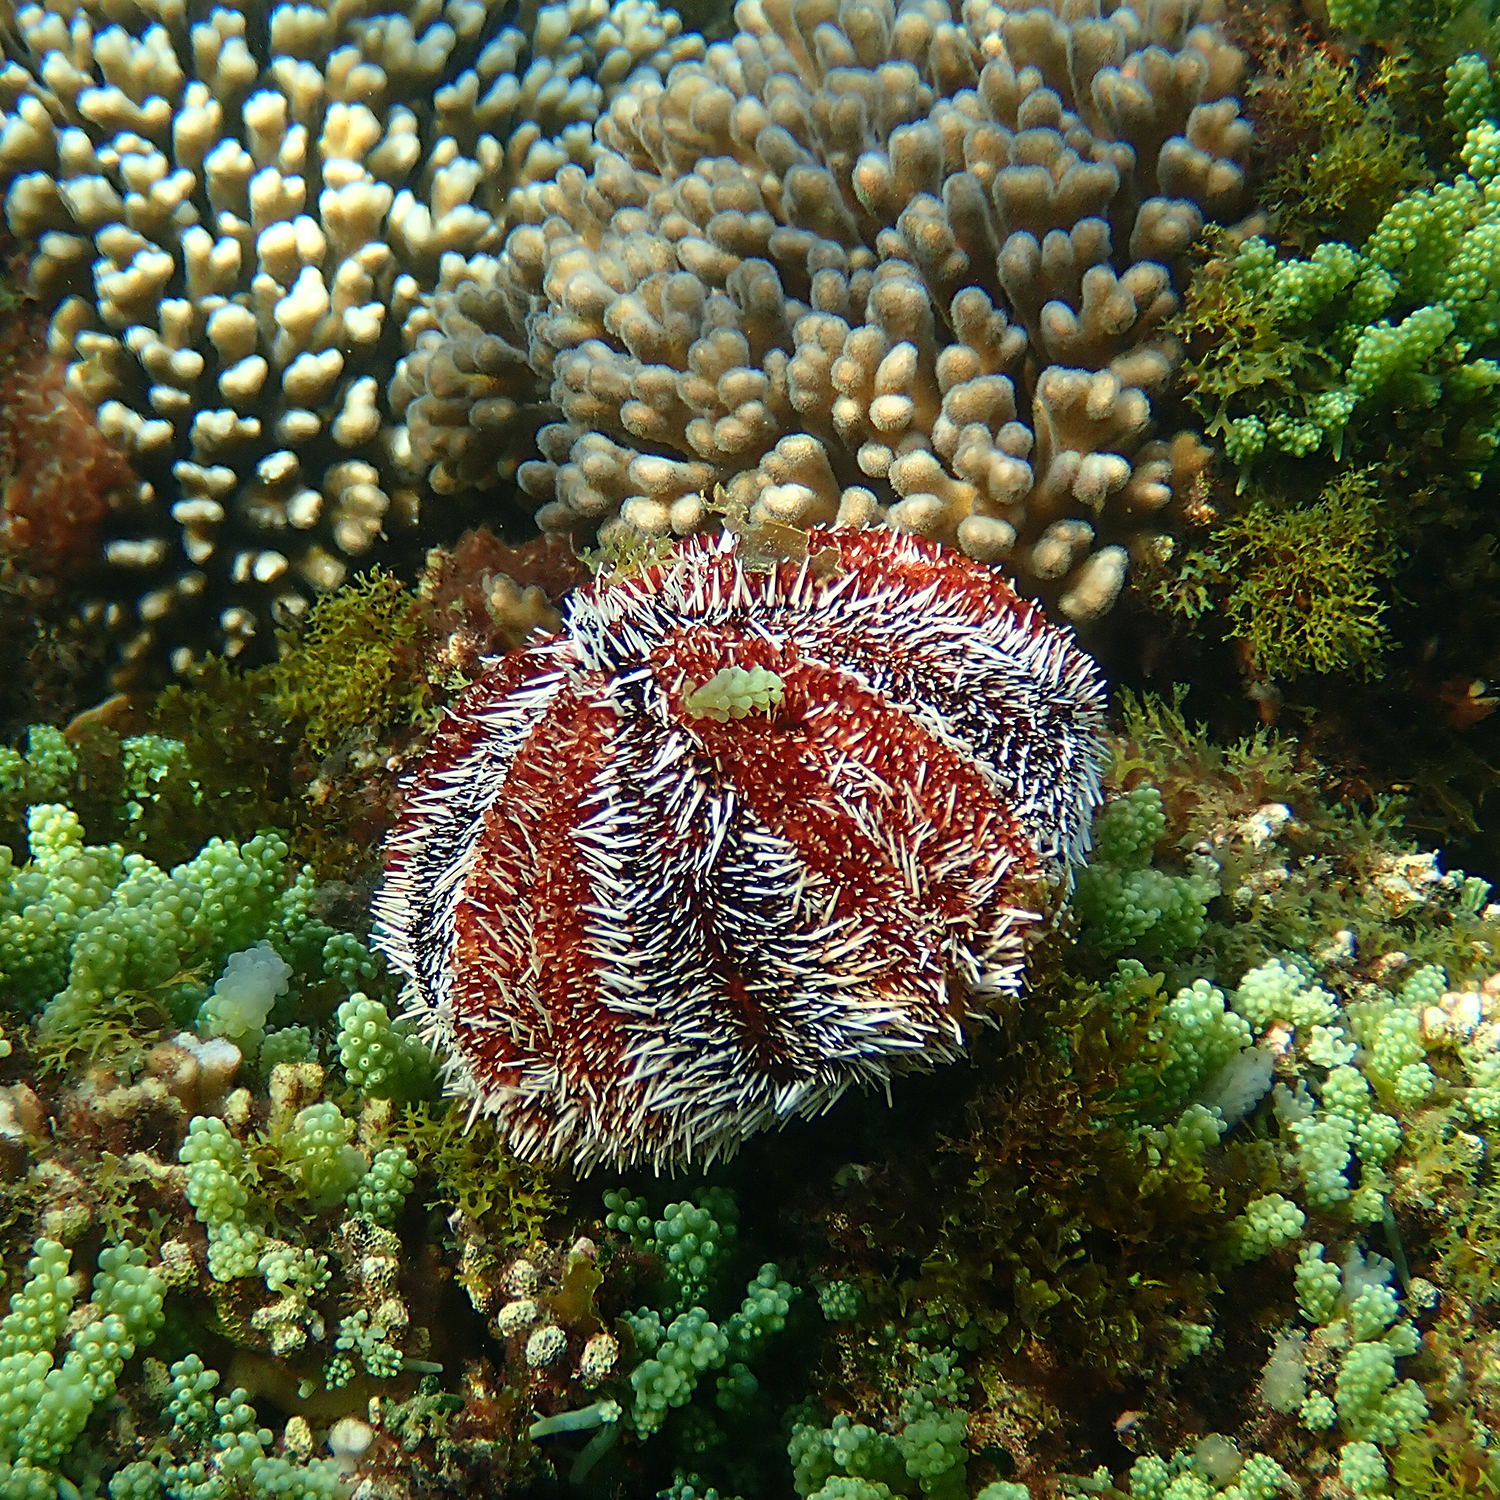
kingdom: Animalia
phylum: Echinodermata
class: Echinoidea
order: Camarodonta
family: Toxopneustidae
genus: Tripneustes
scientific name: Tripneustes gratilla
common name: Bischofsmützenseeigel
